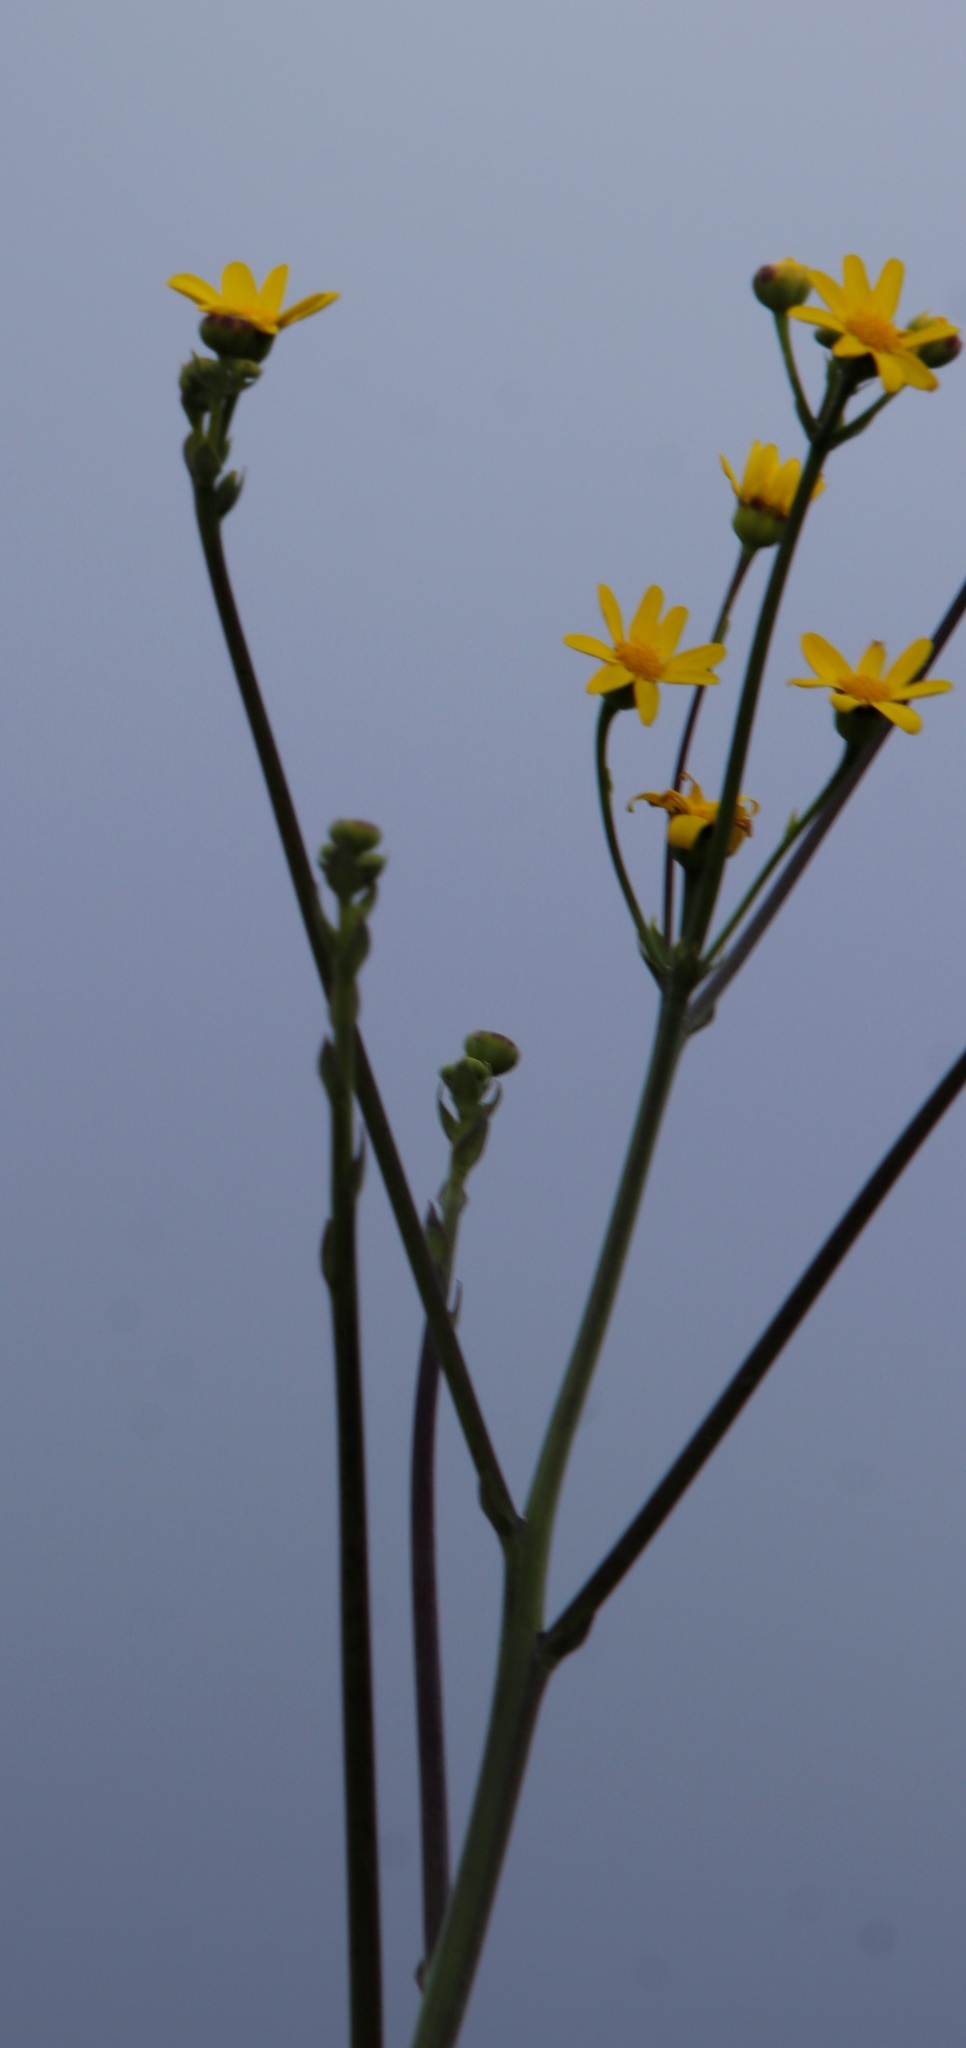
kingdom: Plantae
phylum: Tracheophyta
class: Magnoliopsida
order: Asterales
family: Asteraceae
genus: Othonna
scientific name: Othonna quinquedentata
